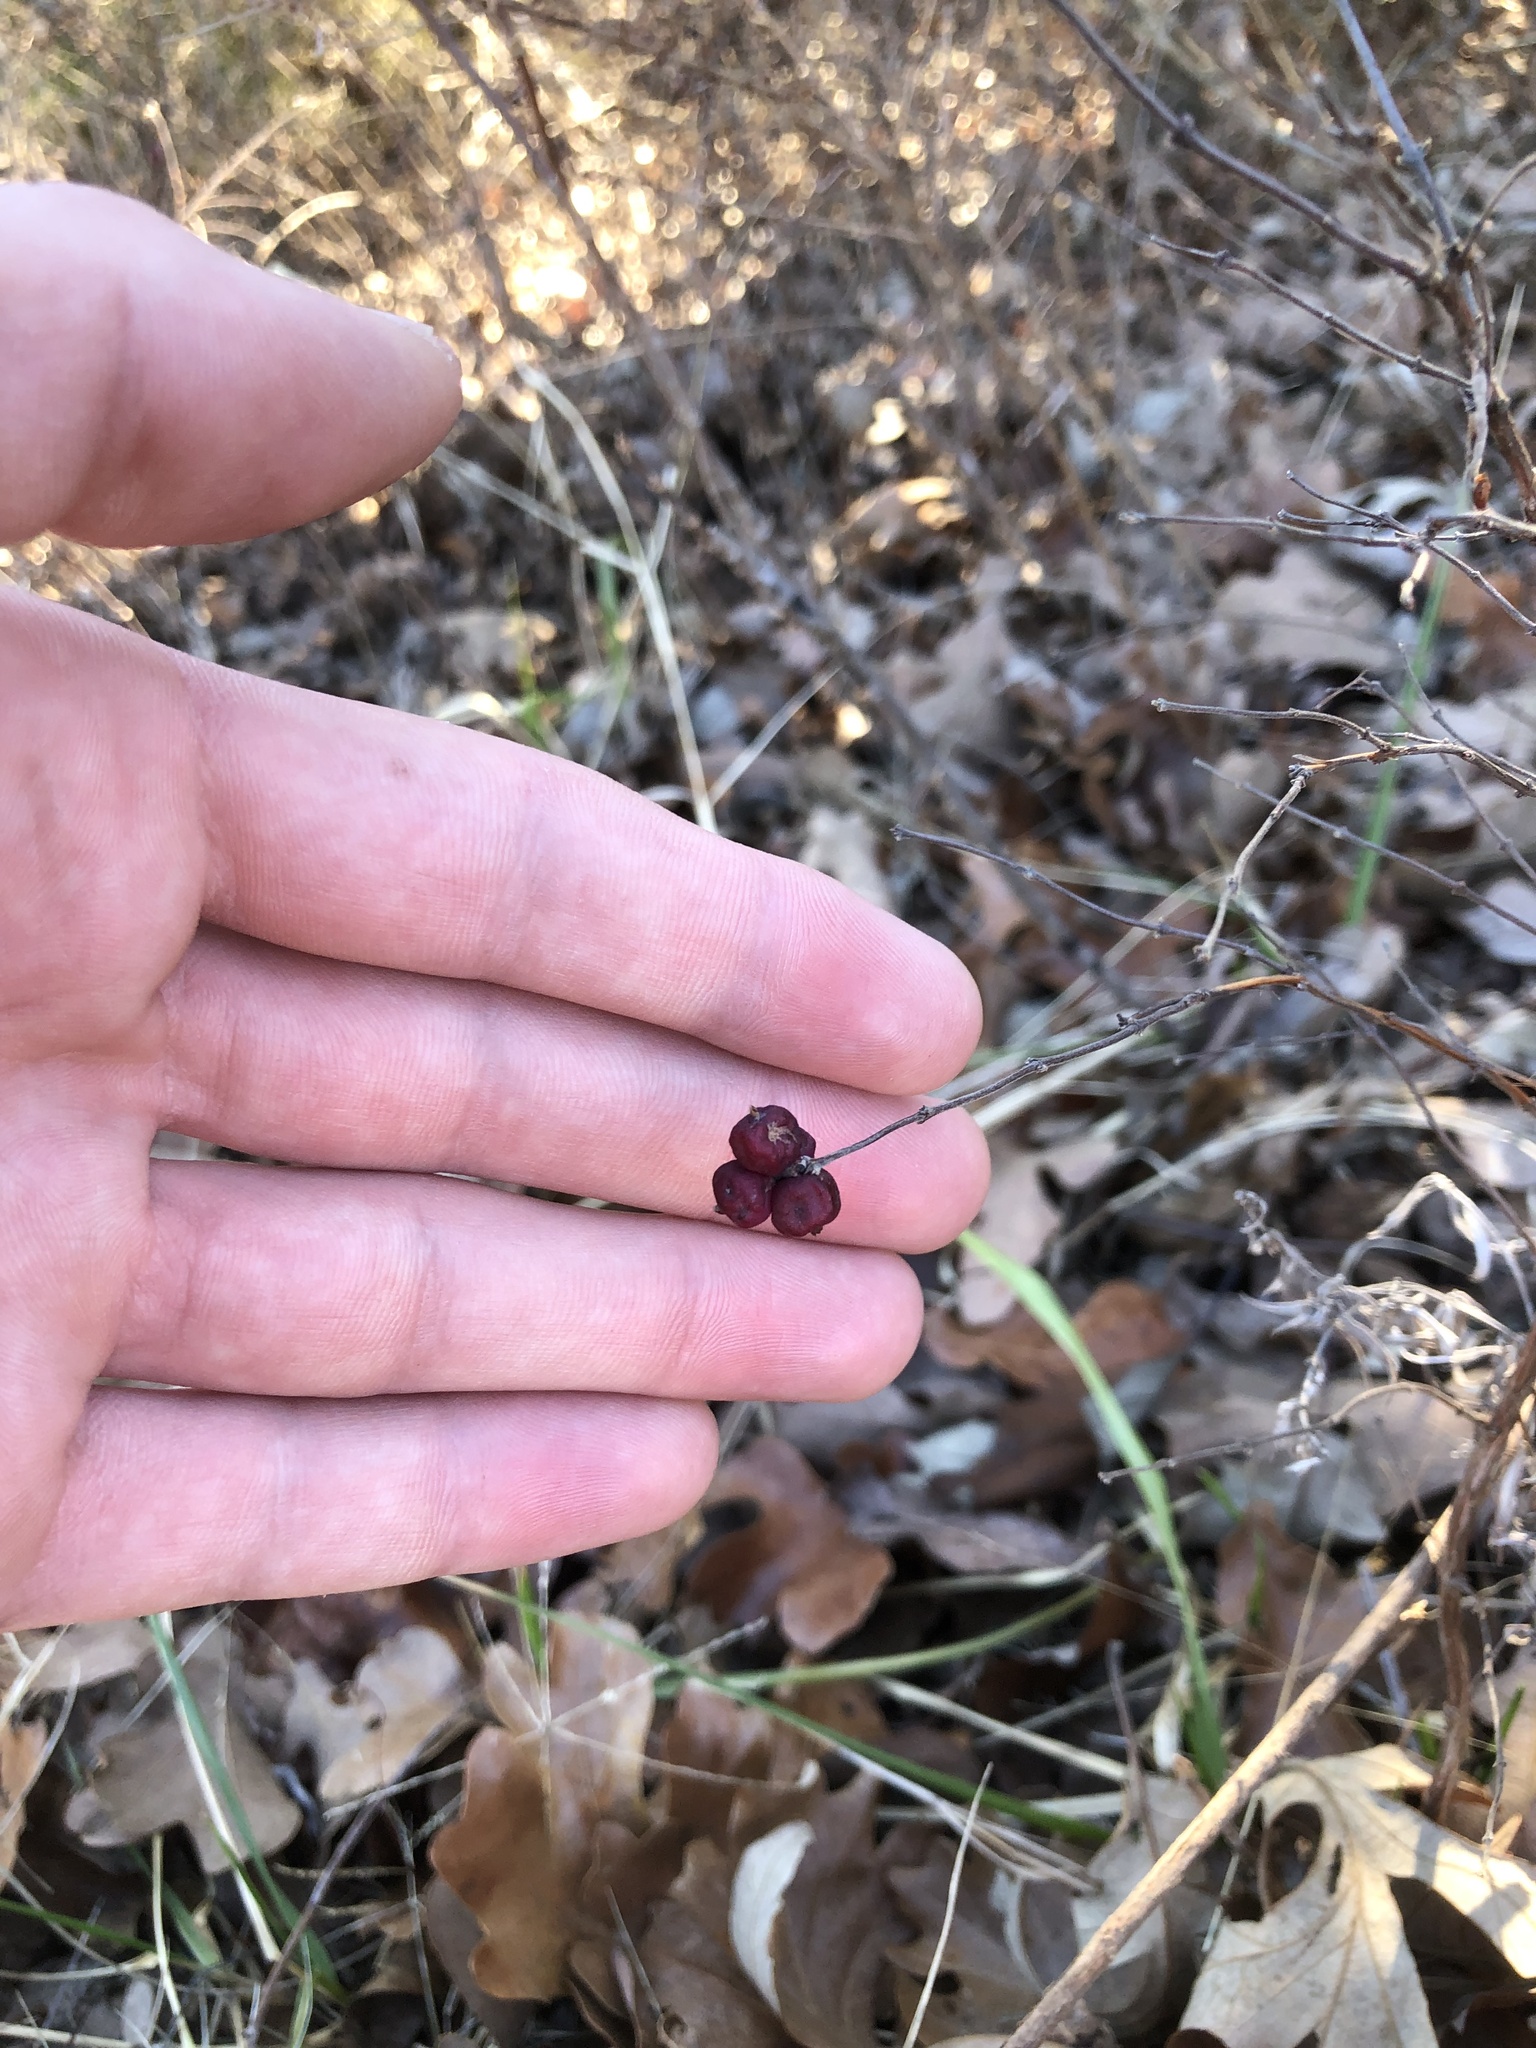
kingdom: Plantae
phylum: Tracheophyta
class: Magnoliopsida
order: Dipsacales
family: Caprifoliaceae
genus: Symphoricarpos
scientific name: Symphoricarpos orbiculatus
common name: Coralberry
